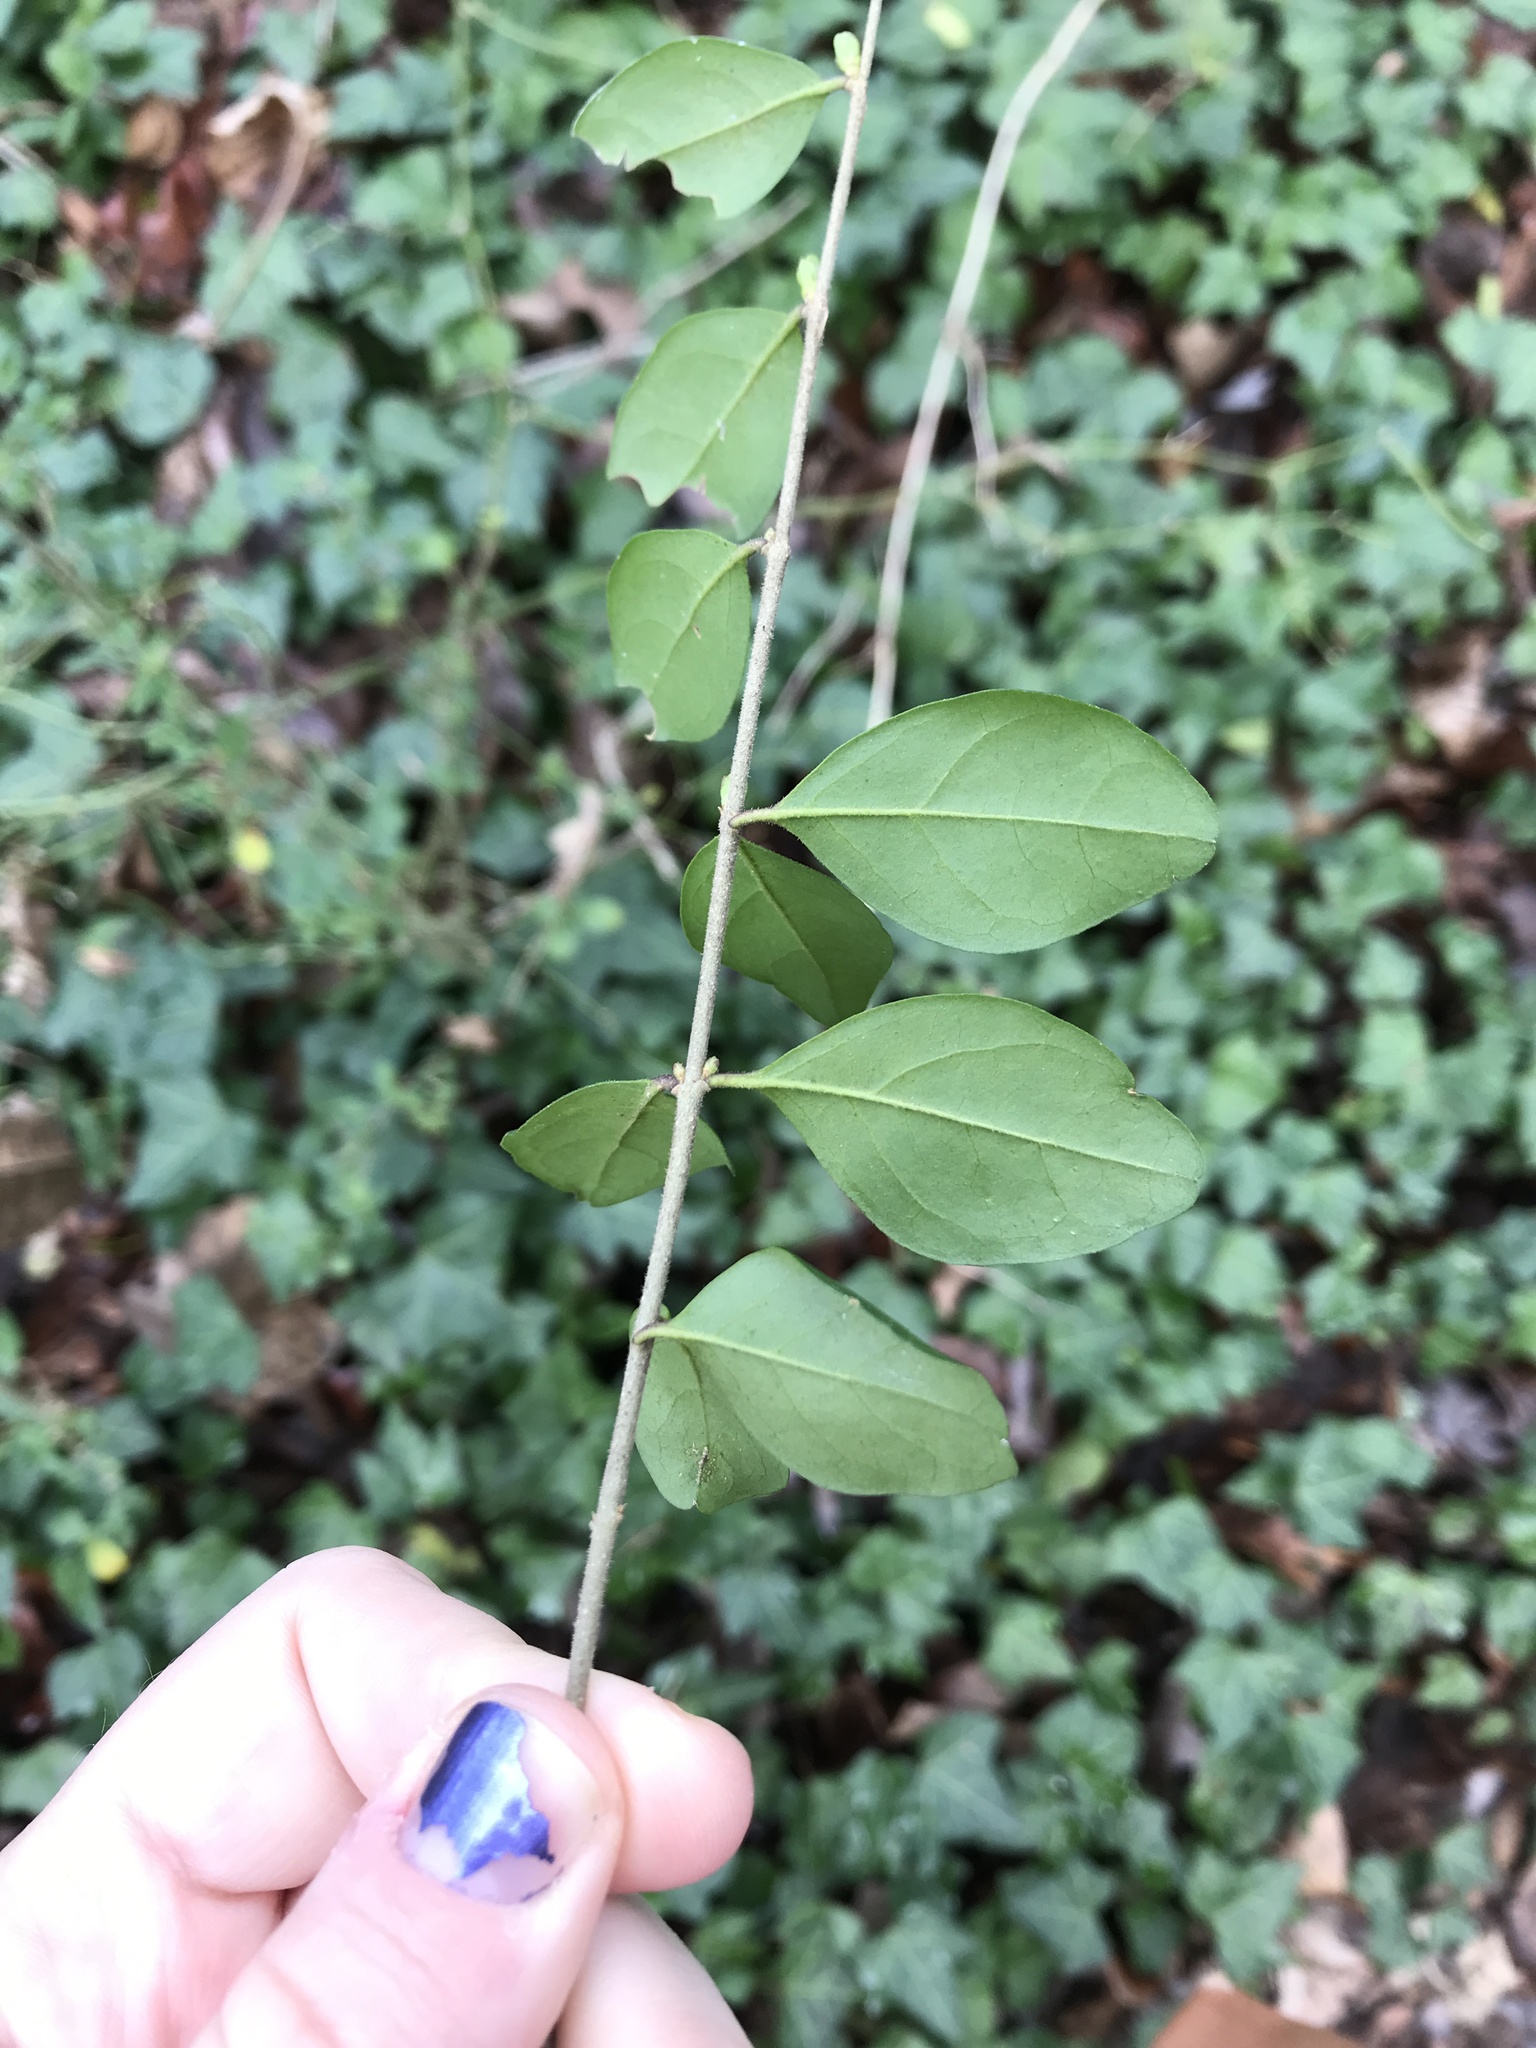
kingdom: Plantae
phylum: Tracheophyta
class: Magnoliopsida
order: Lamiales
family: Oleaceae
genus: Ligustrum
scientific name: Ligustrum sinense
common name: Chinese privet
